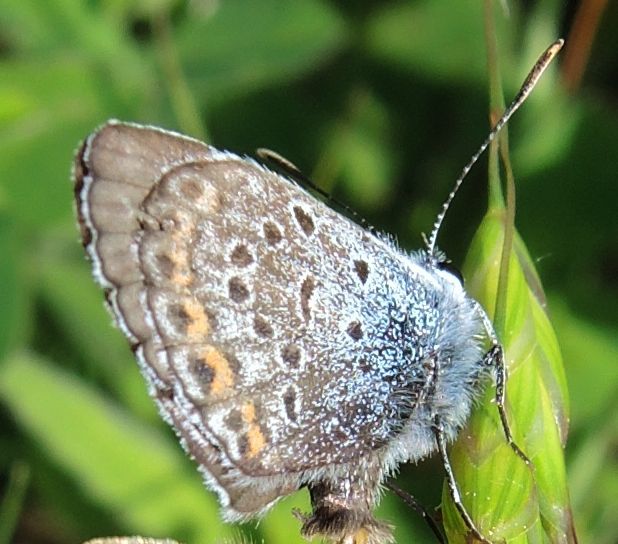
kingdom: Animalia
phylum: Arthropoda
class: Insecta
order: Lepidoptera
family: Lycaenidae
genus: Plebejus
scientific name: Plebejus argus
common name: Silver-studded blue
